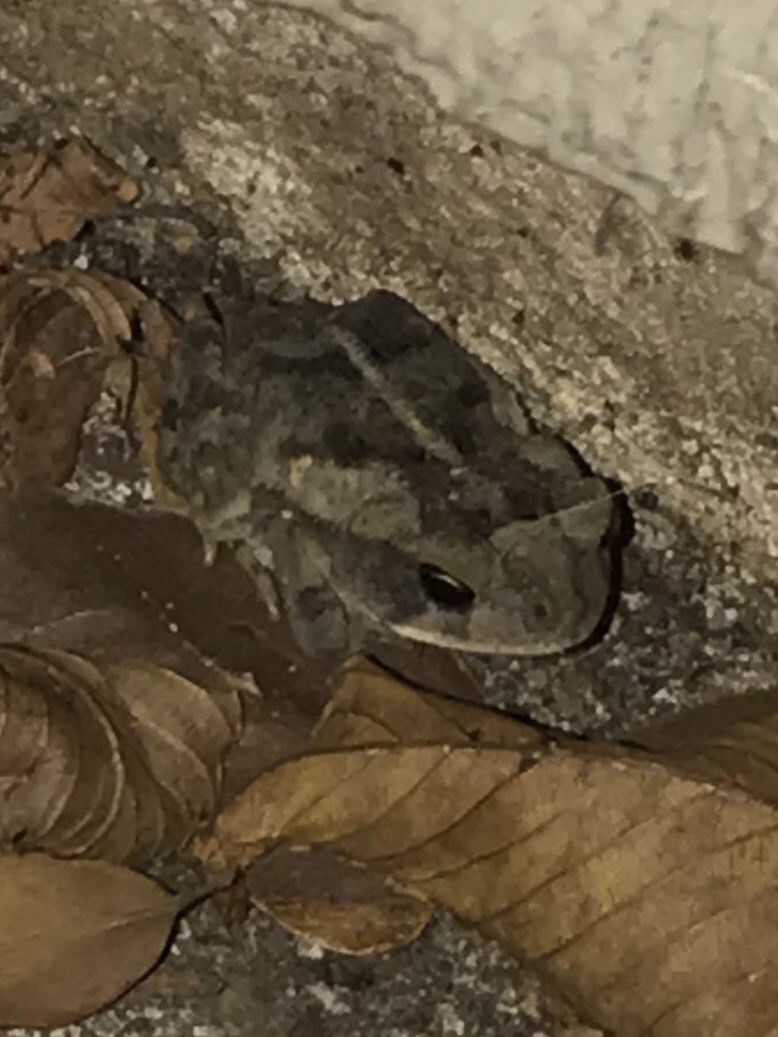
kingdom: Animalia
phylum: Chordata
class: Amphibia
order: Anura
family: Bufonidae
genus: Incilius
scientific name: Incilius nebulifer
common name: Gulf coast toad
